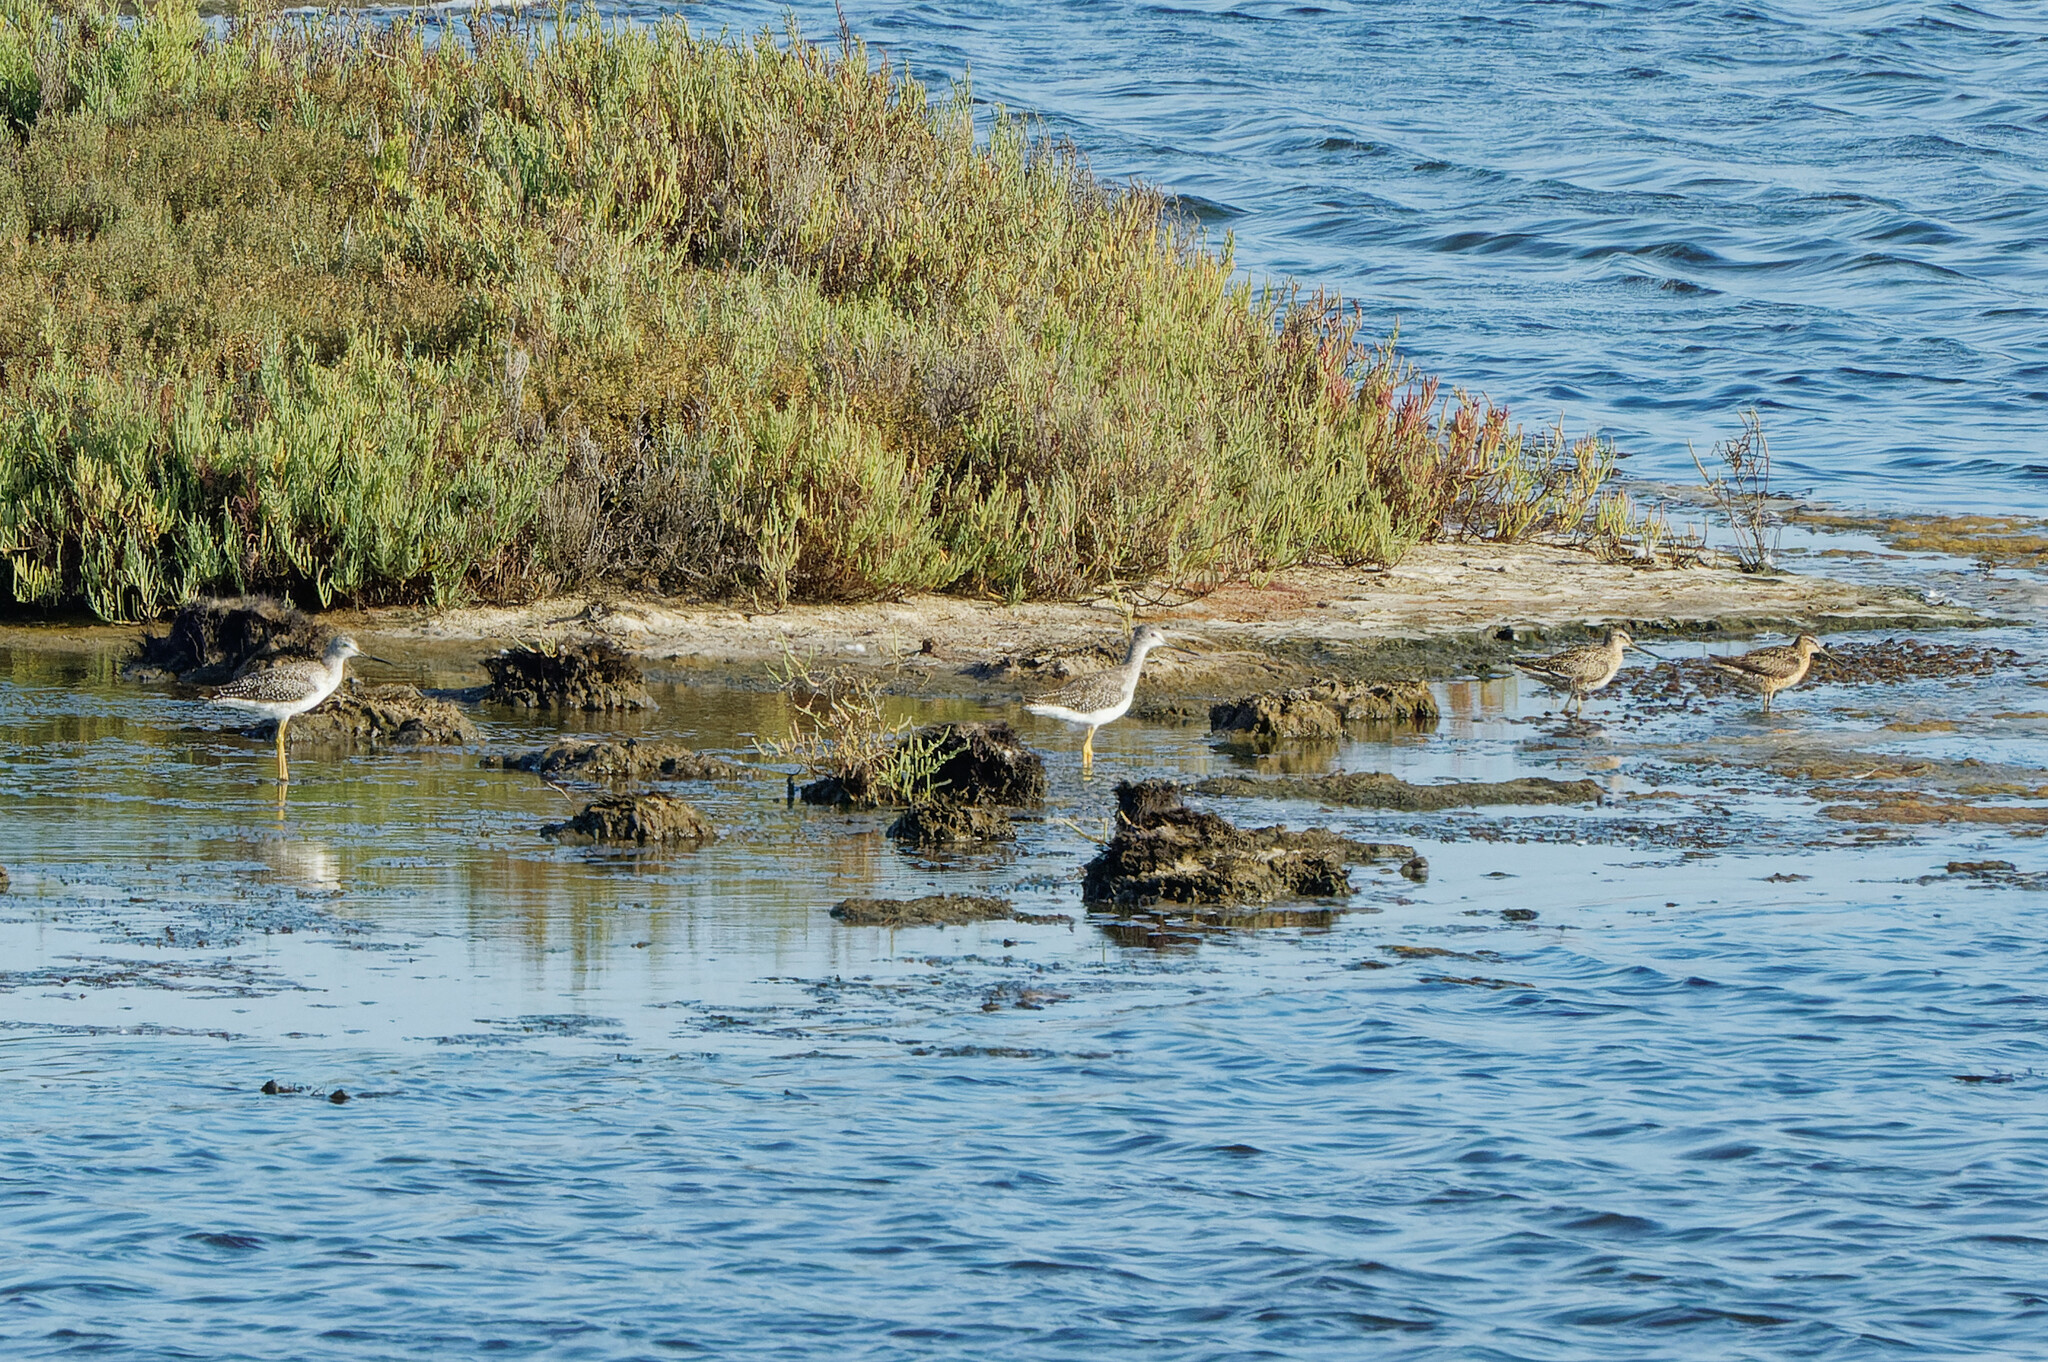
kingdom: Animalia
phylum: Chordata
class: Aves
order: Charadriiformes
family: Scolopacidae
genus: Tringa
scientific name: Tringa melanoleuca
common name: Greater yellowlegs
